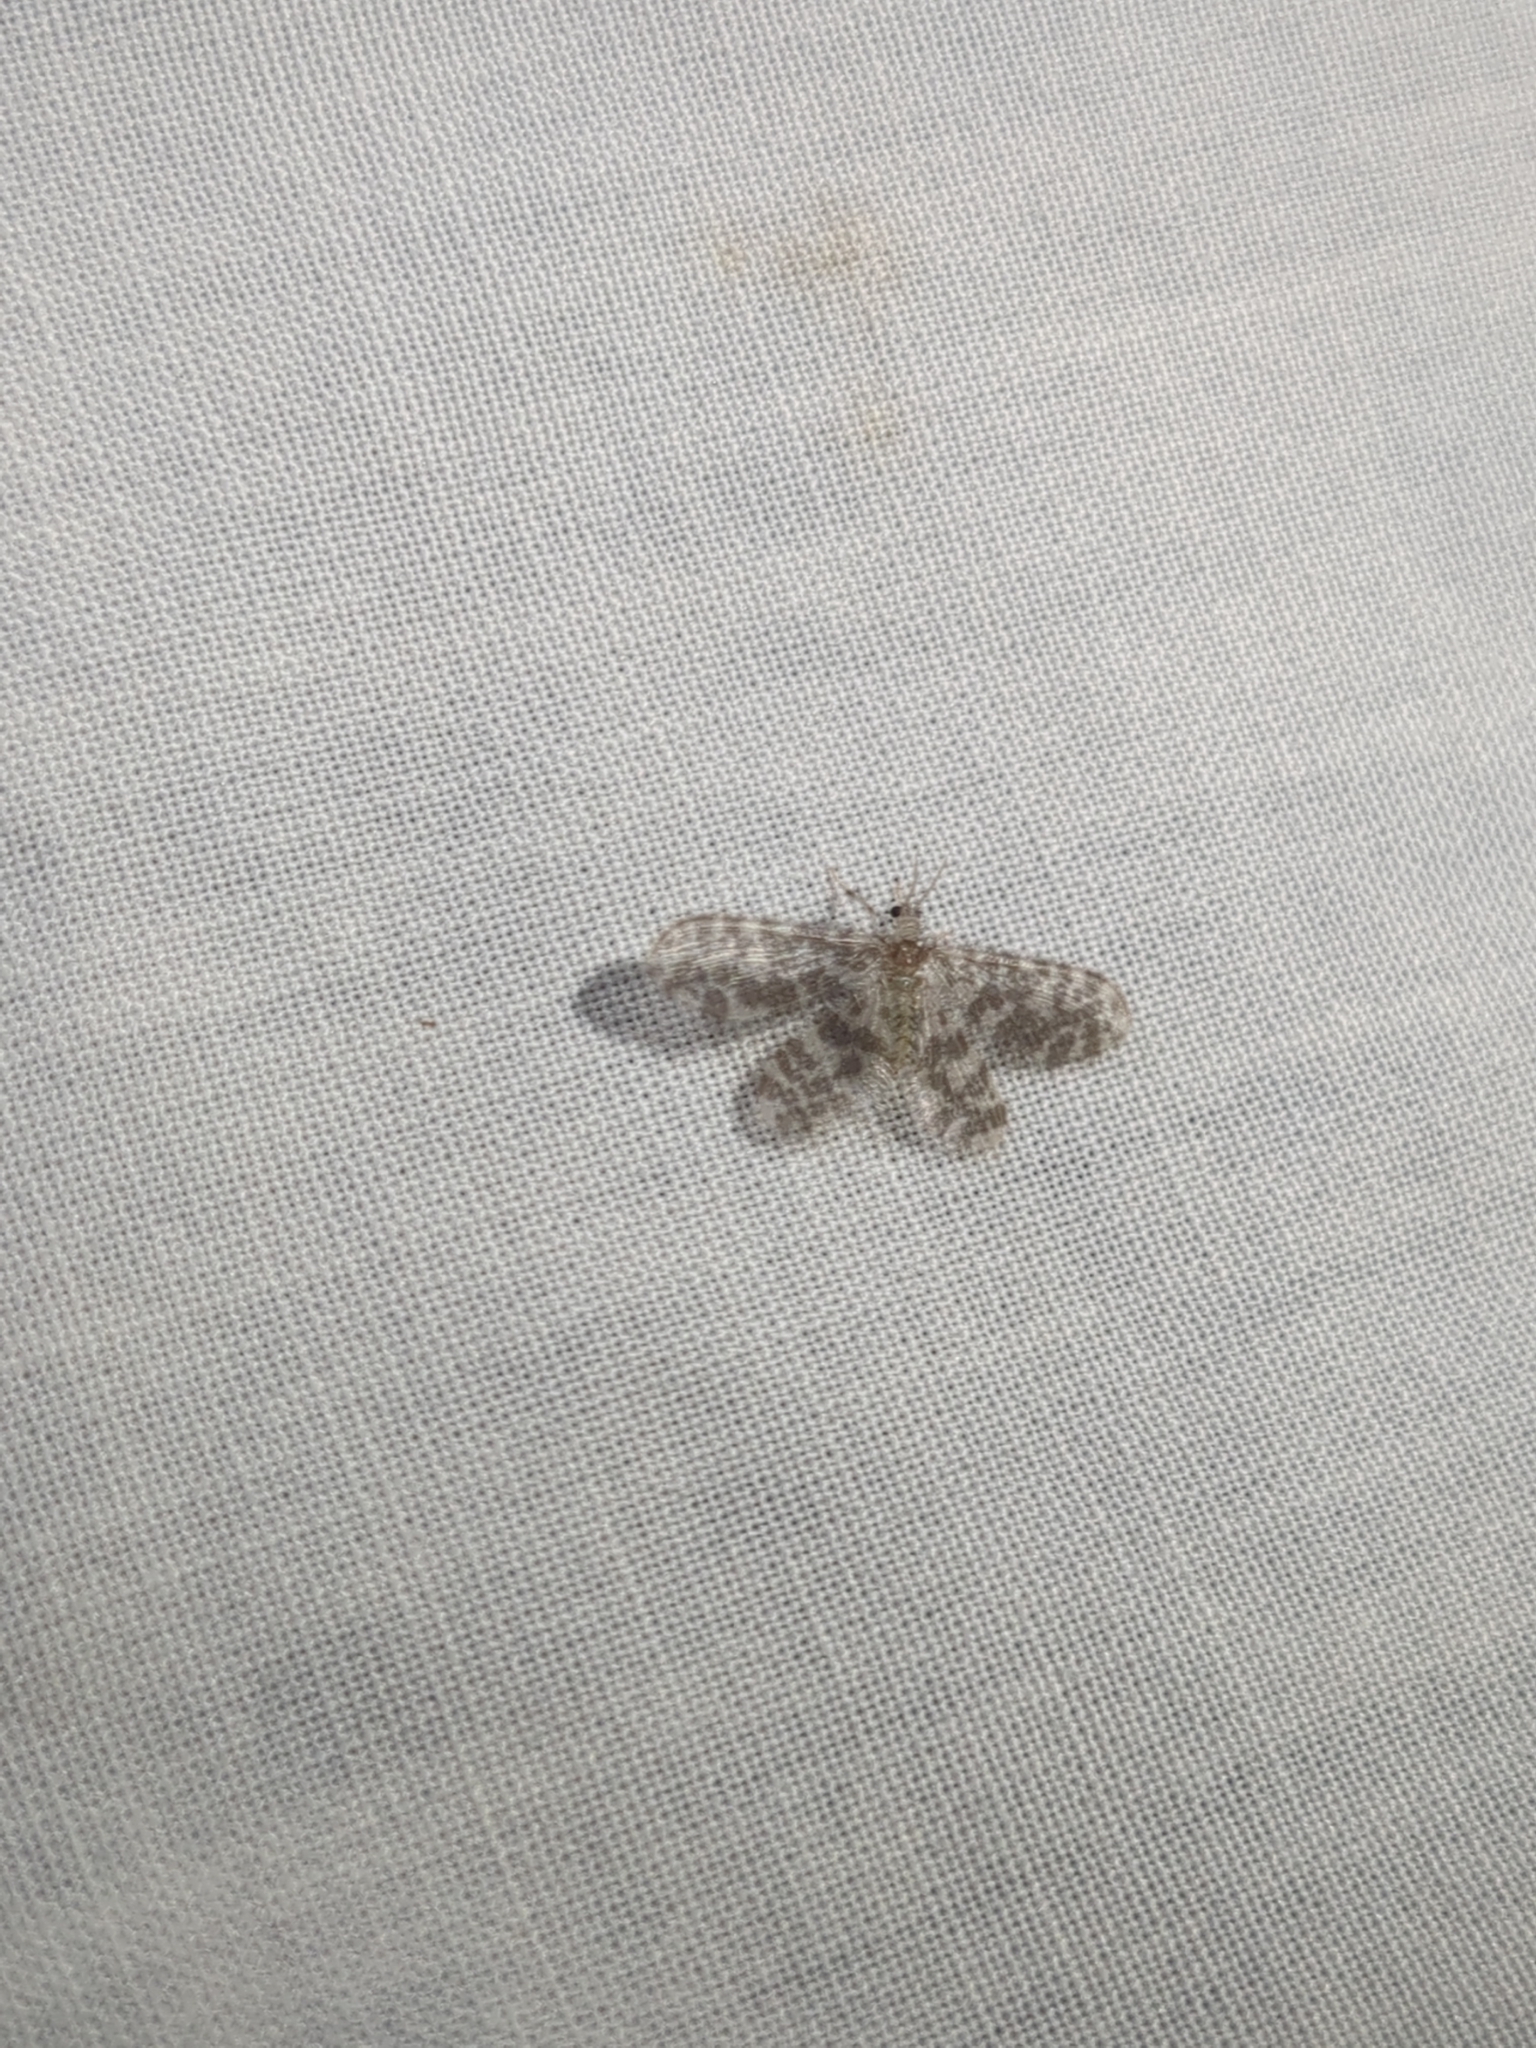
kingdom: Animalia
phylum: Arthropoda
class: Insecta
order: Neuroptera
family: Dilaridae
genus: Nallachius
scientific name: Nallachius americanus
